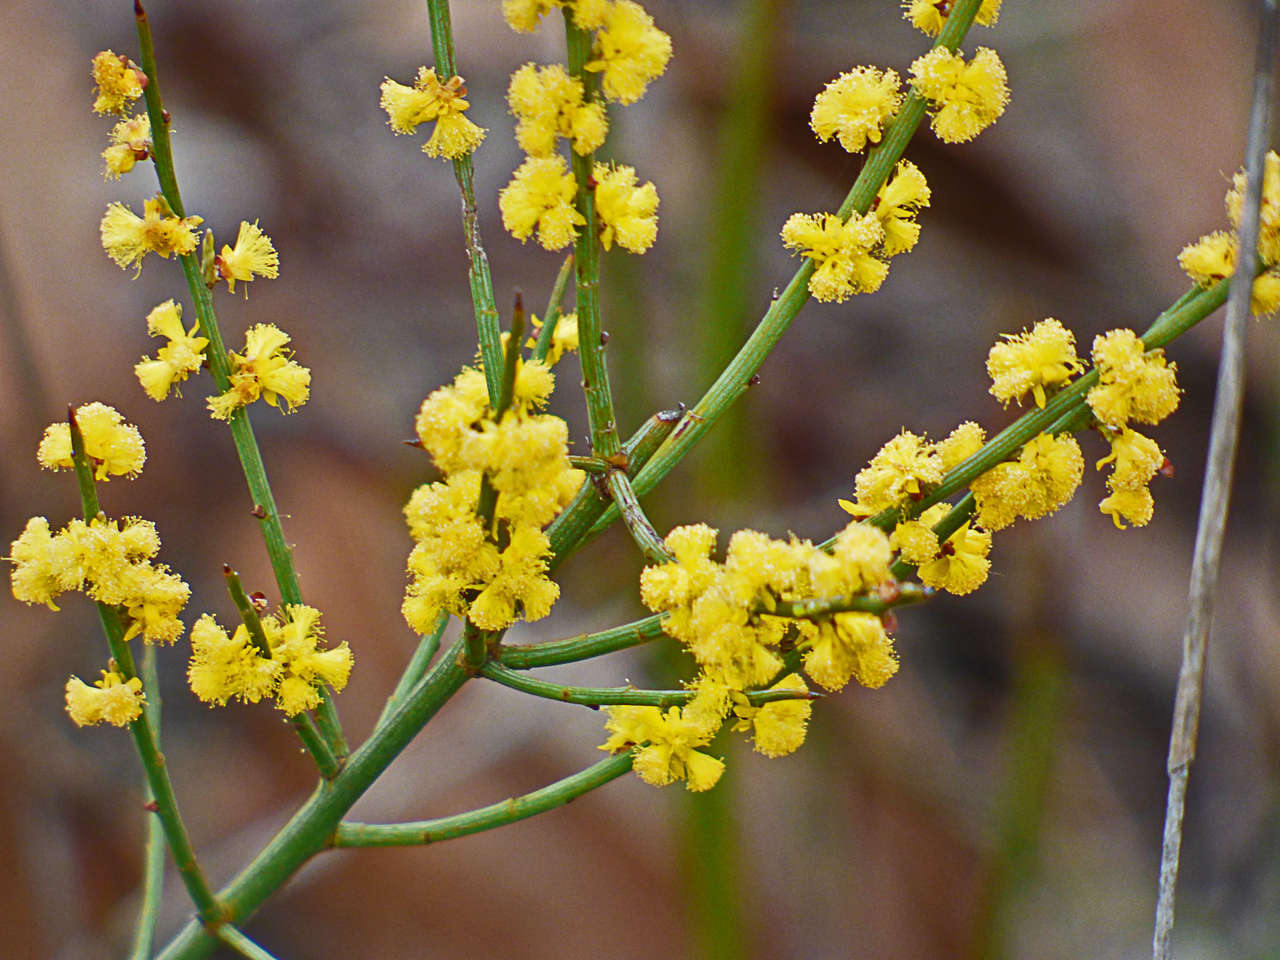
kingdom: Plantae
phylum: Tracheophyta
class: Magnoliopsida
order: Fabales
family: Fabaceae
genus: Acacia
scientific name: Acacia spinescens
